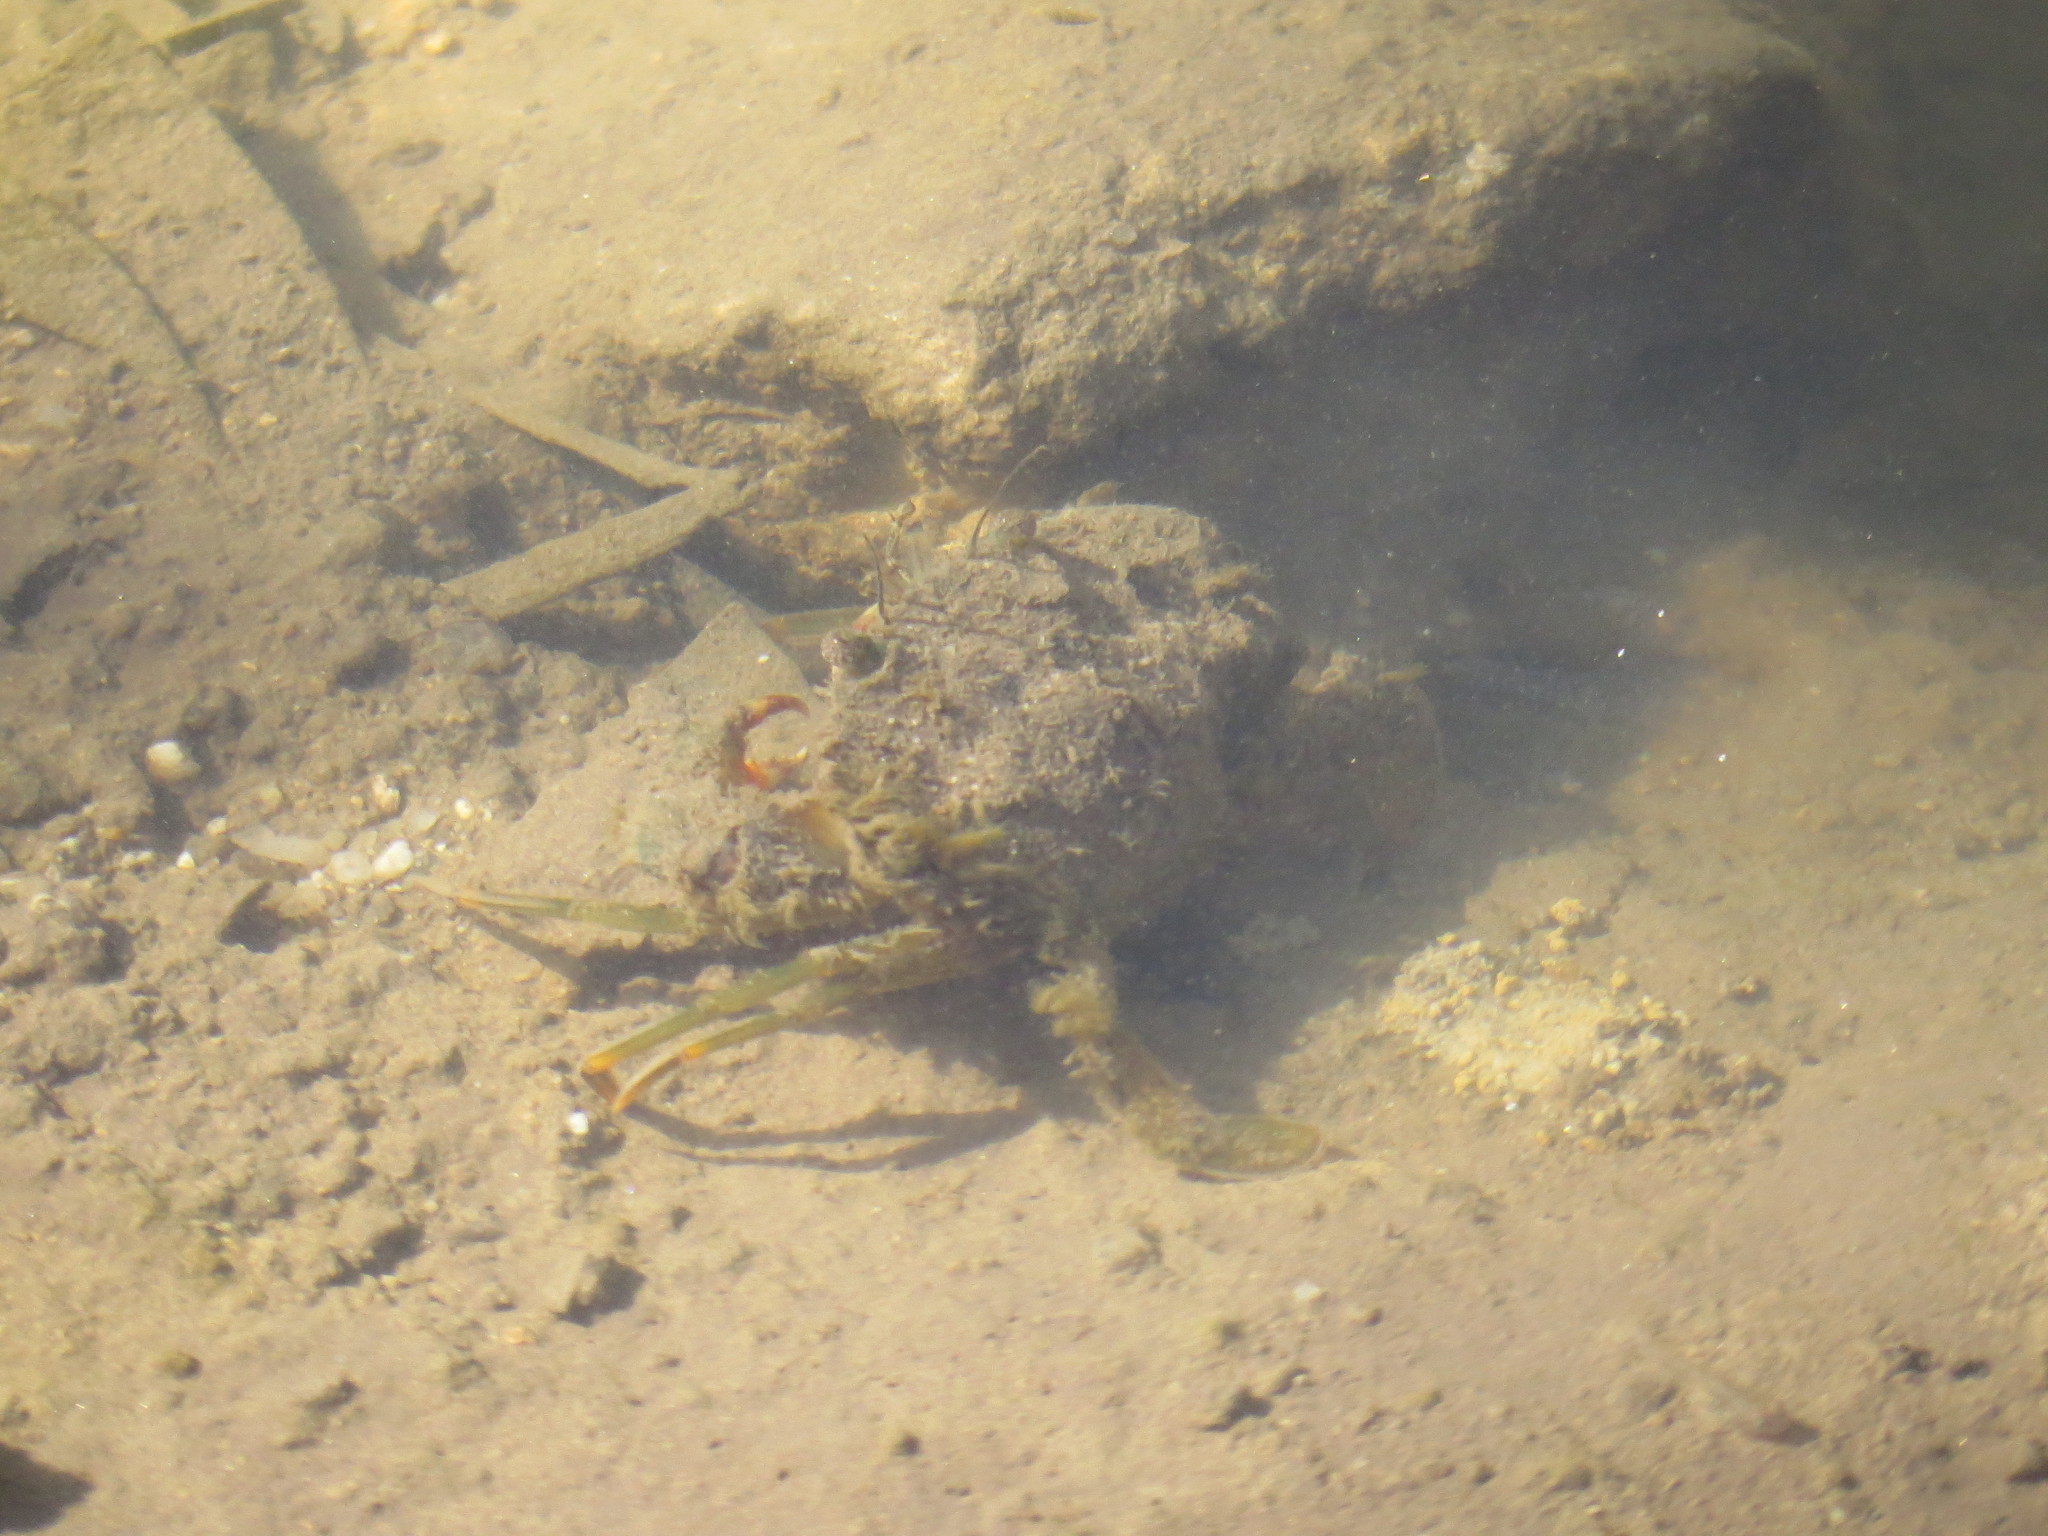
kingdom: Animalia
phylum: Arthropoda
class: Malacostraca
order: Decapoda
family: Portunidae
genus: Scylla
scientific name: Scylla serrata
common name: Giant mud crab
